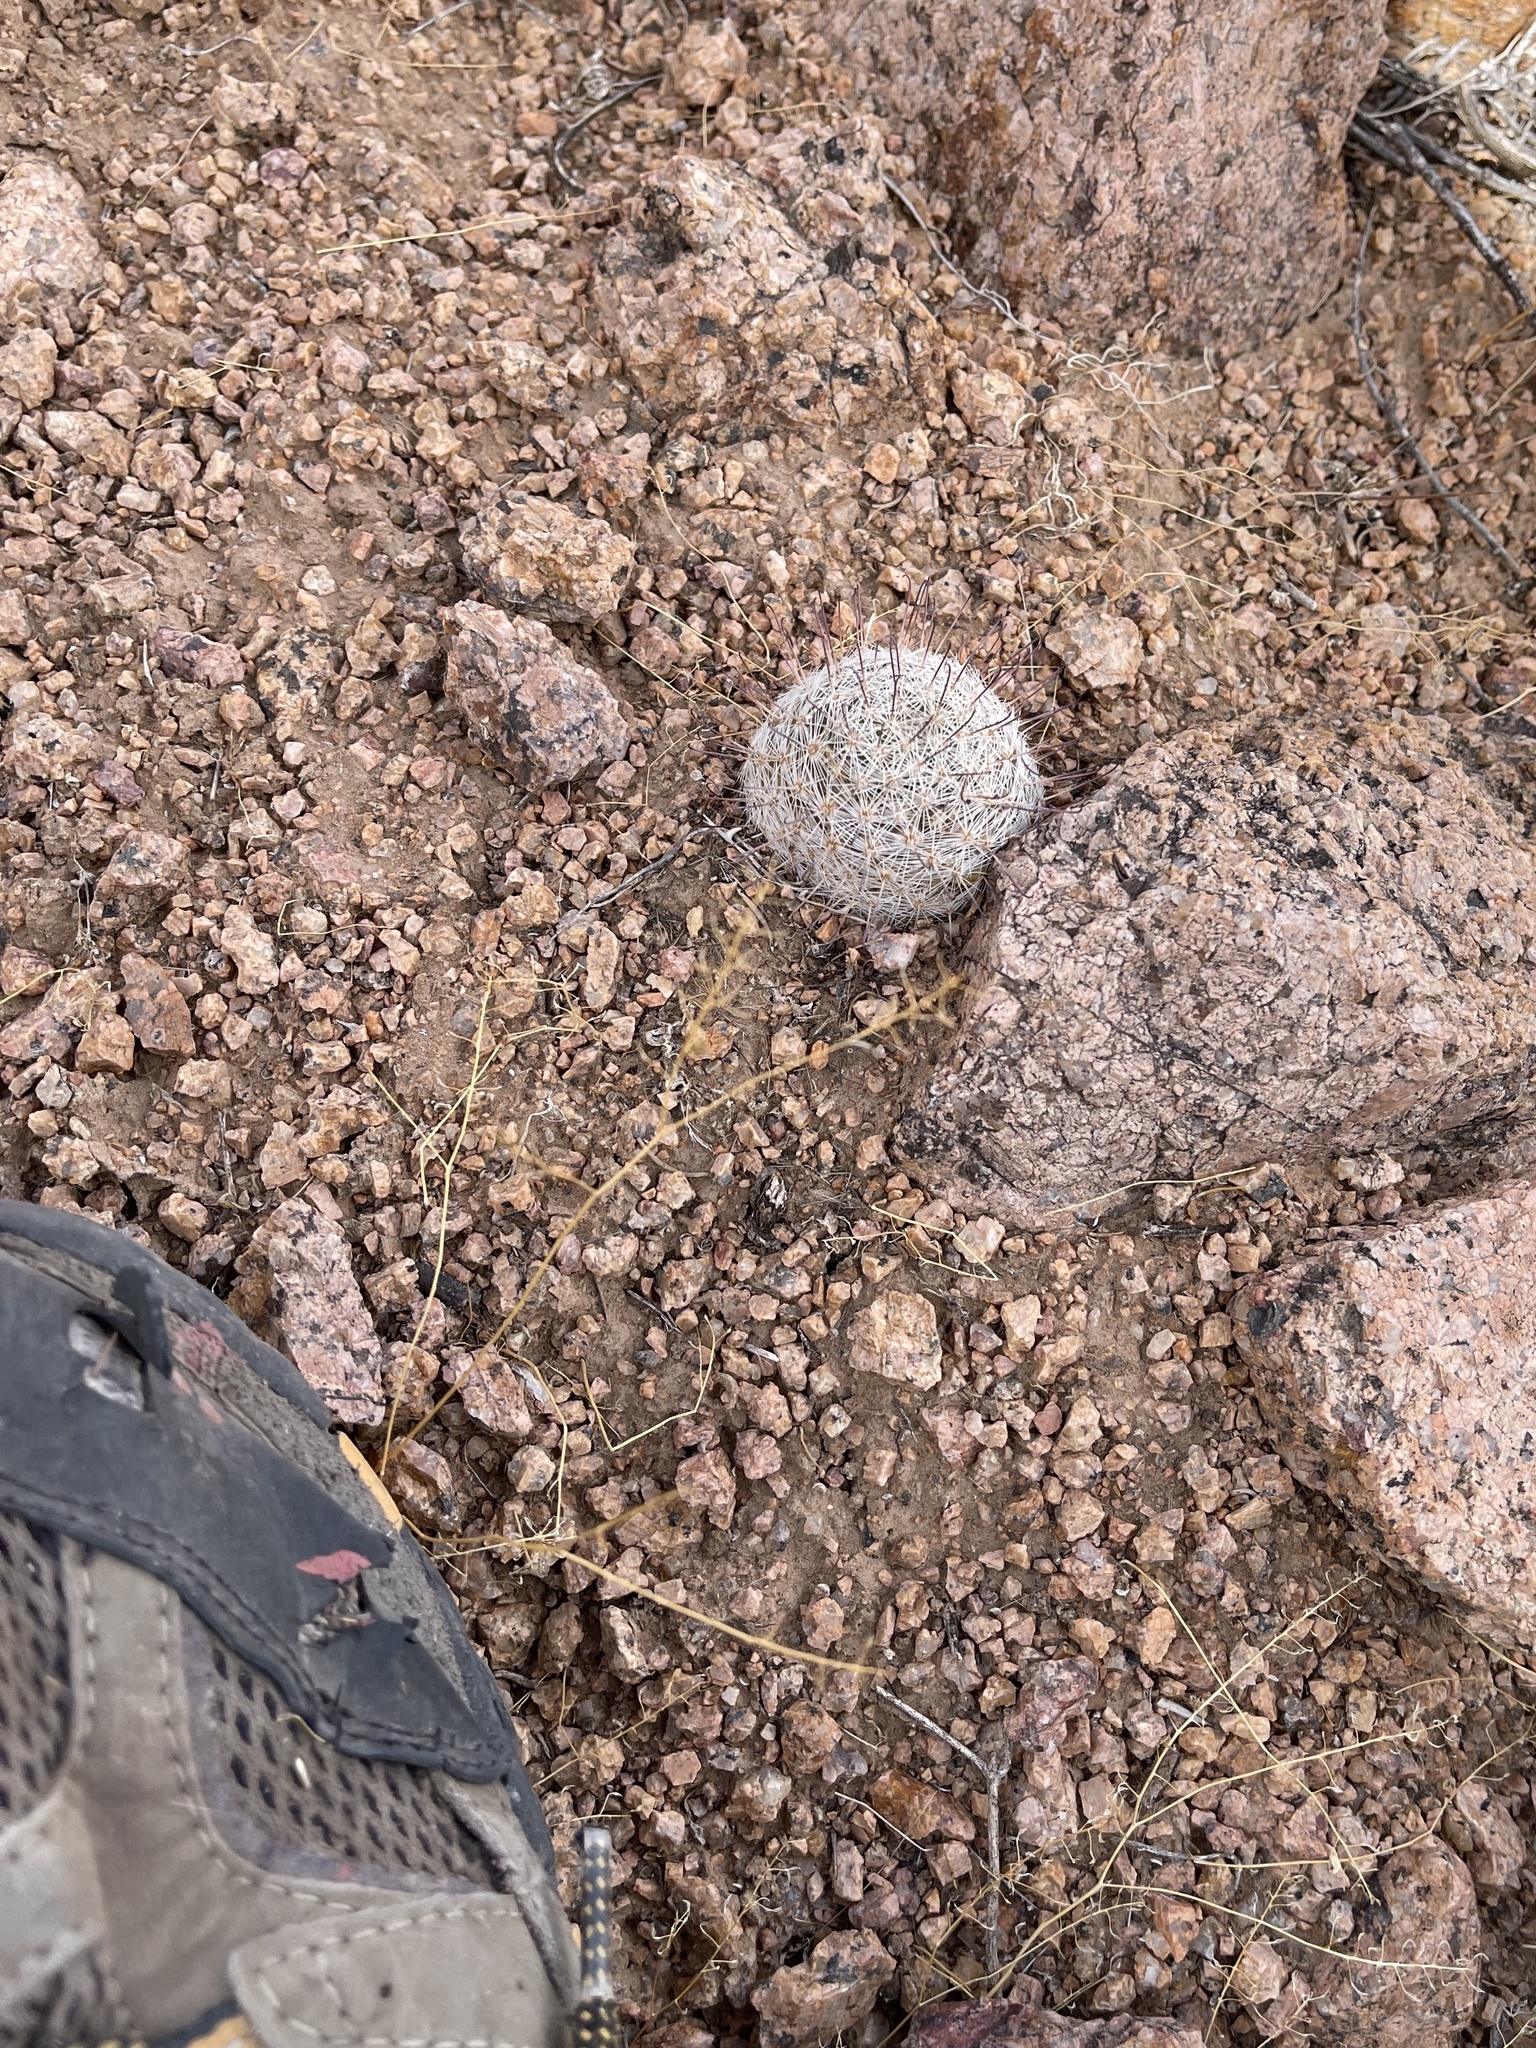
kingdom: Plantae
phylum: Tracheophyta
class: Magnoliopsida
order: Caryophyllales
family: Cactaceae
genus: Cochemiea
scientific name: Cochemiea grahamii
